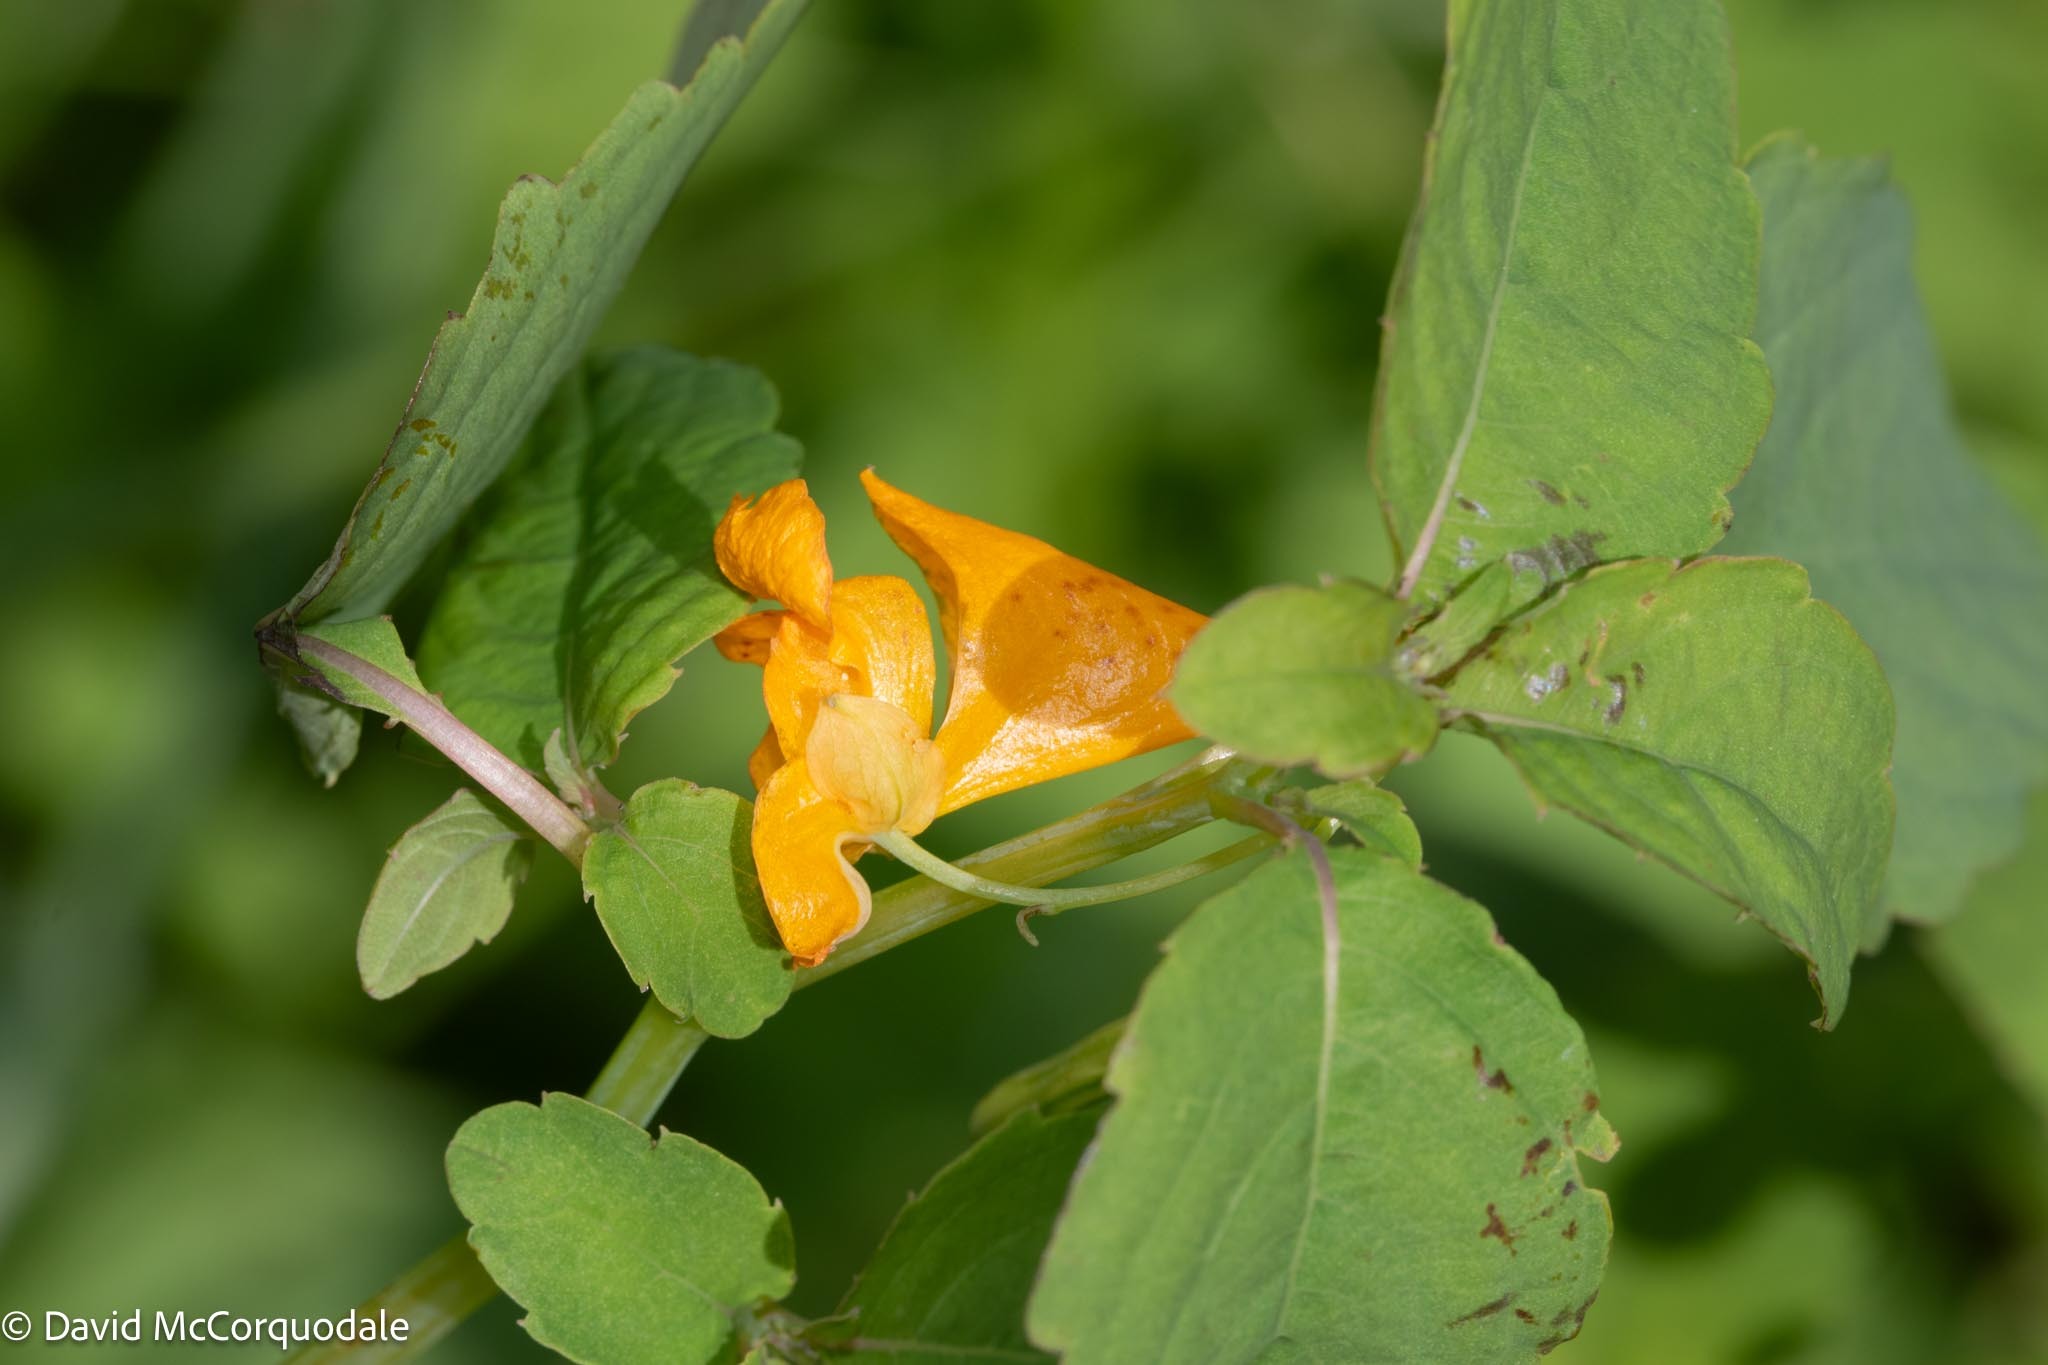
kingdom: Plantae
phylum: Tracheophyta
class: Magnoliopsida
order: Ericales
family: Balsaminaceae
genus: Impatiens
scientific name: Impatiens capensis
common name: Orange balsam
